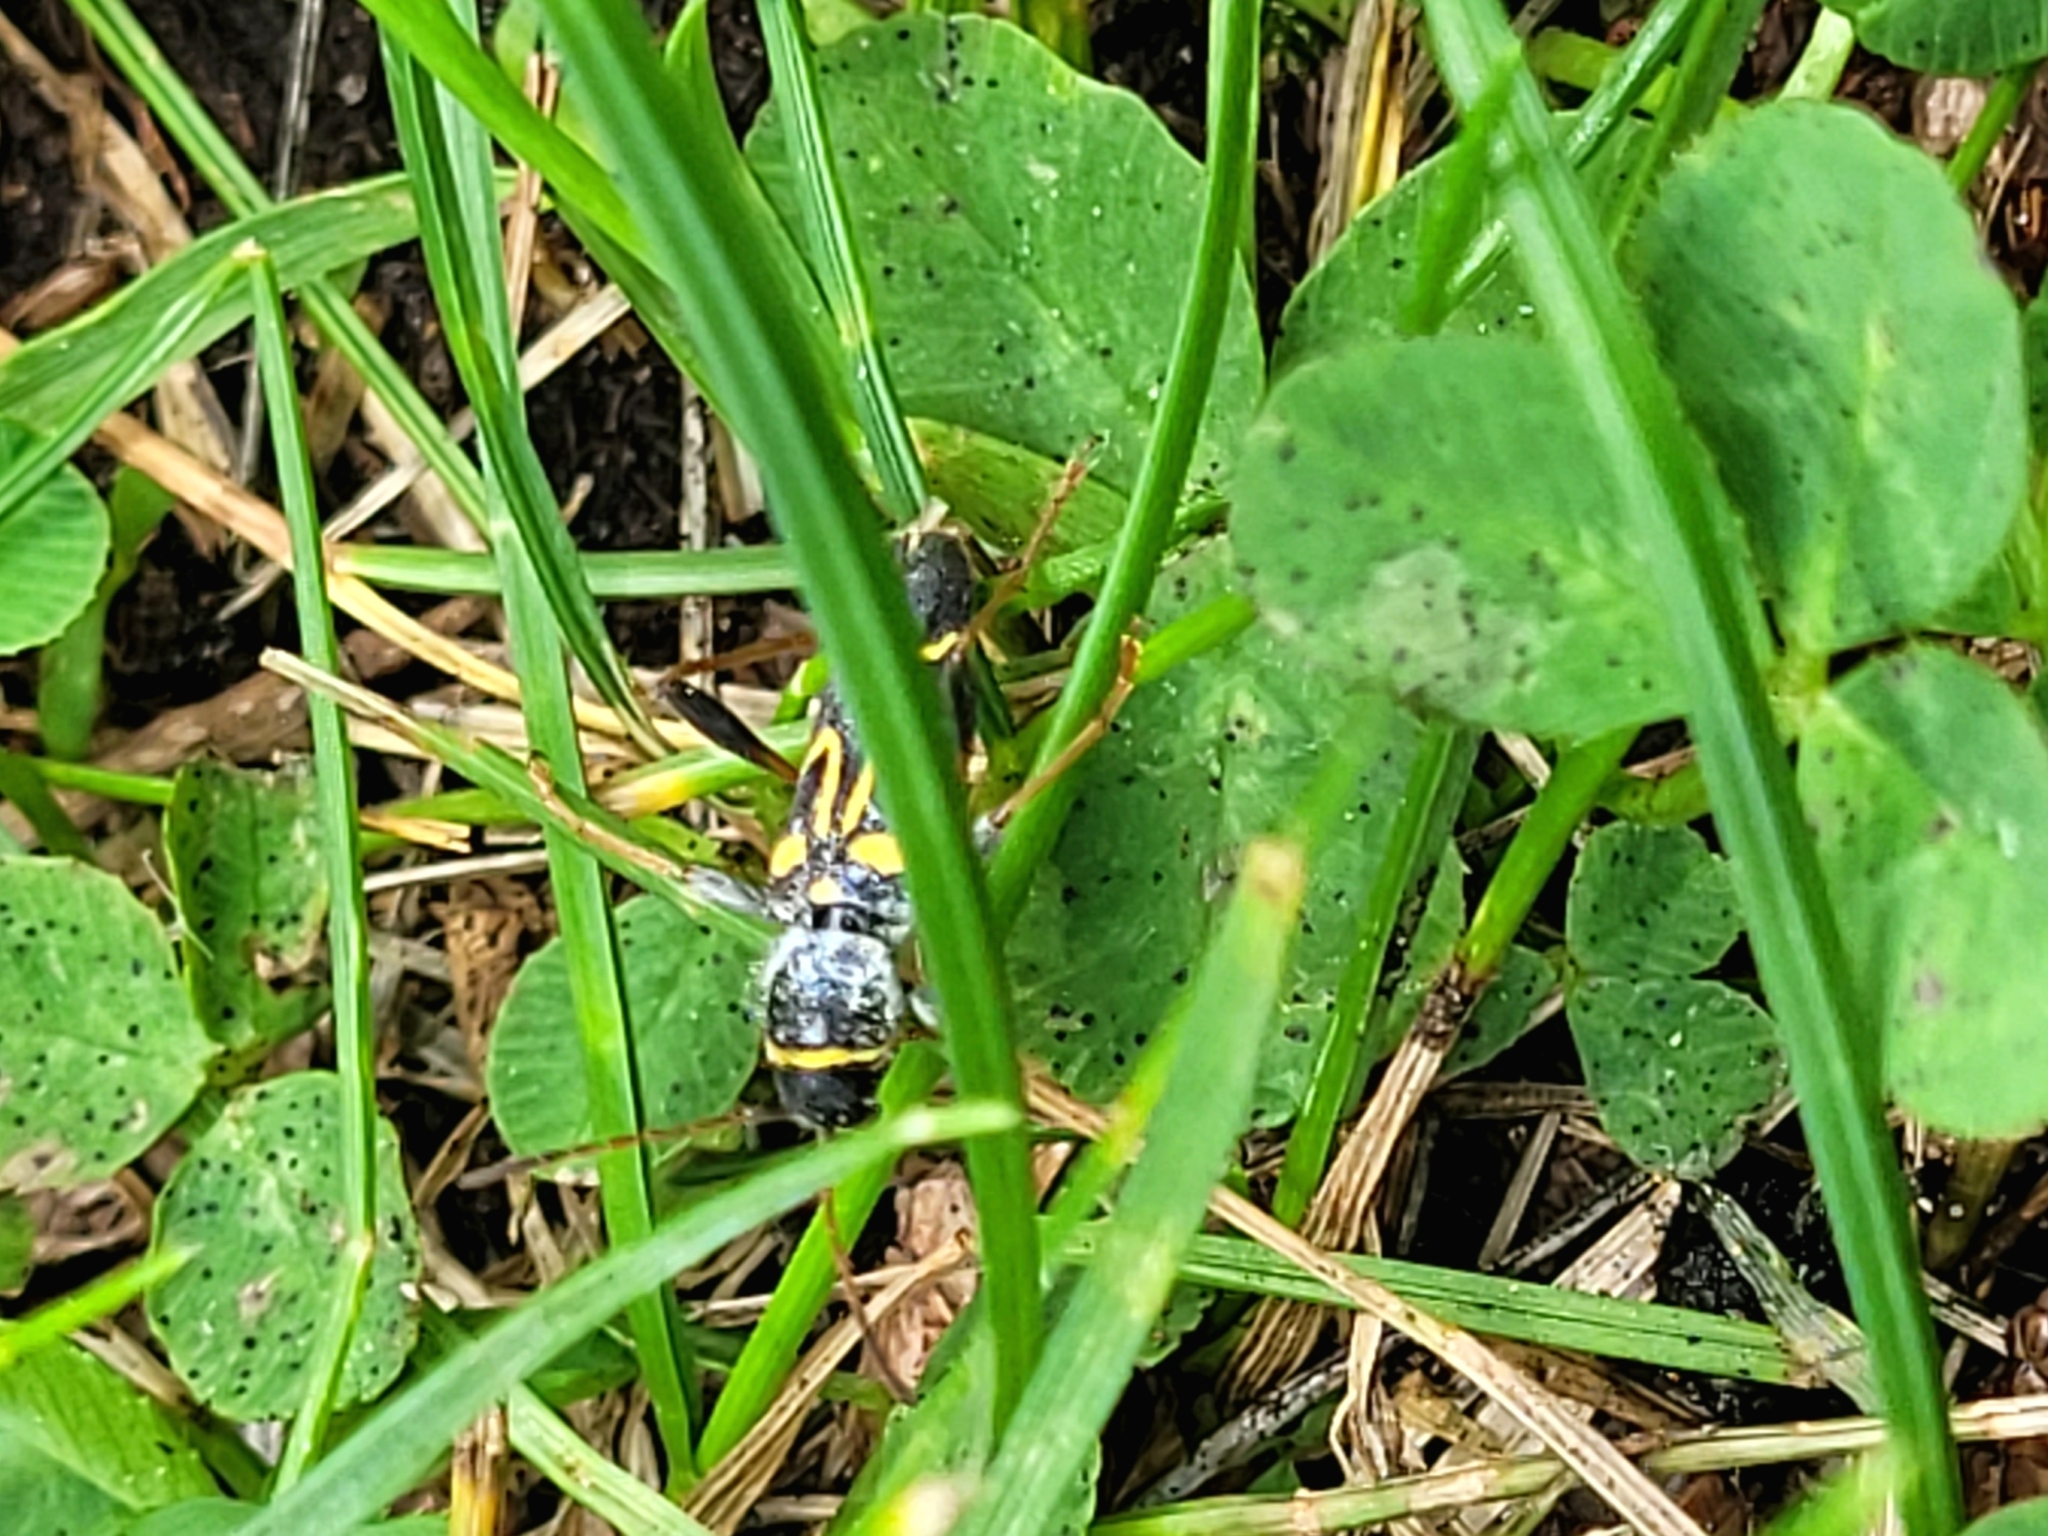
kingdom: Animalia
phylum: Arthropoda
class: Insecta
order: Coleoptera
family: Cerambycidae
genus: Clytus
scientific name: Clytus ruricola
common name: Round-necked longhorn beetle
